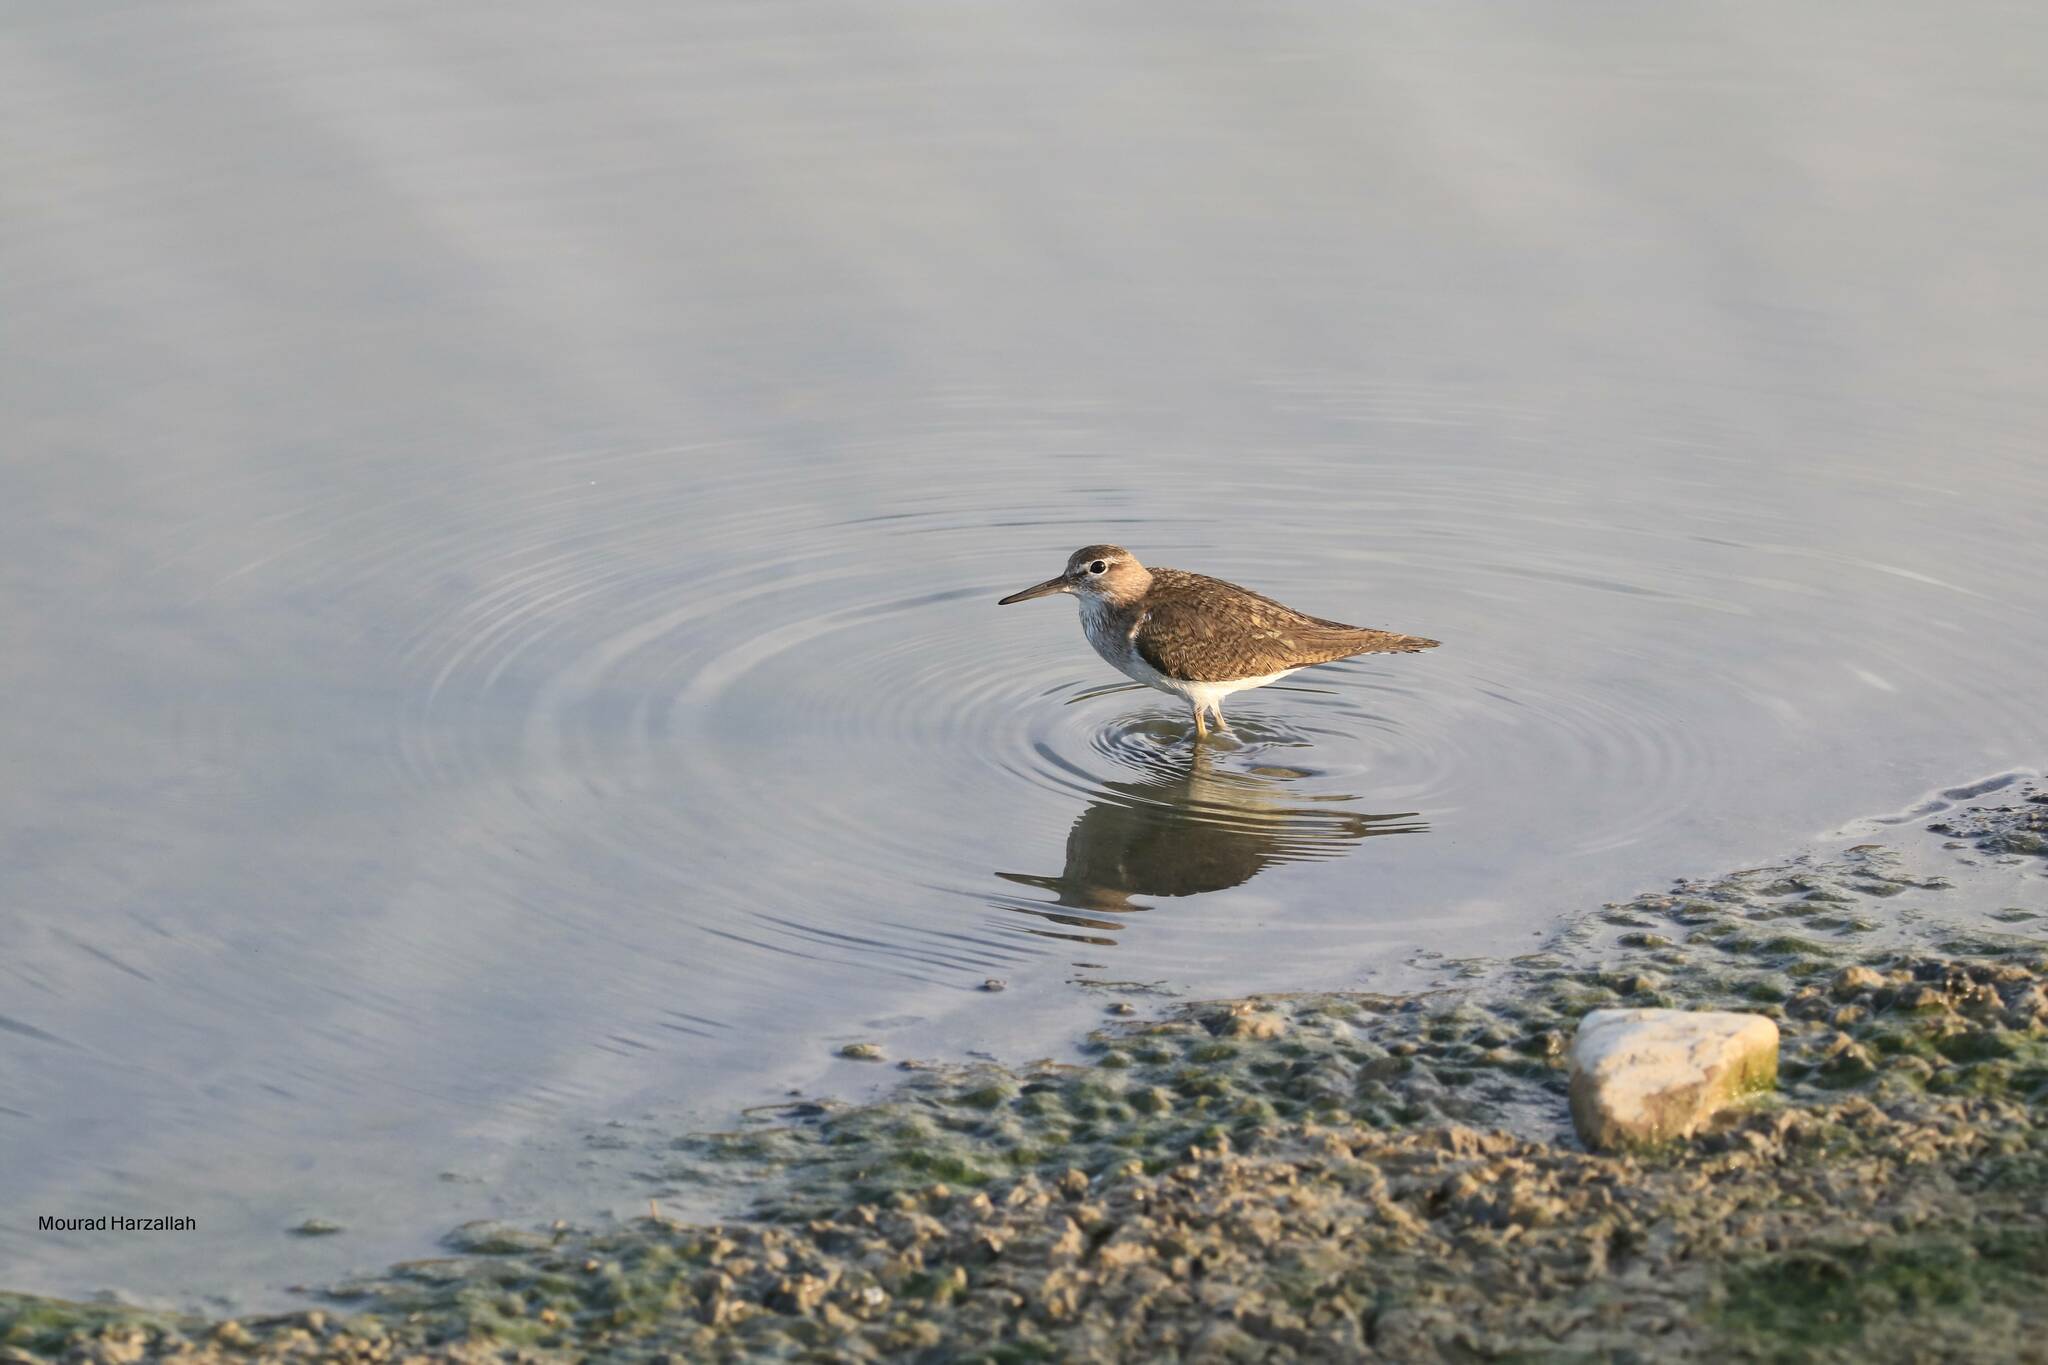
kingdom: Animalia
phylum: Chordata
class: Aves
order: Charadriiformes
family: Scolopacidae
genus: Actitis
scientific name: Actitis hypoleucos
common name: Common sandpiper
